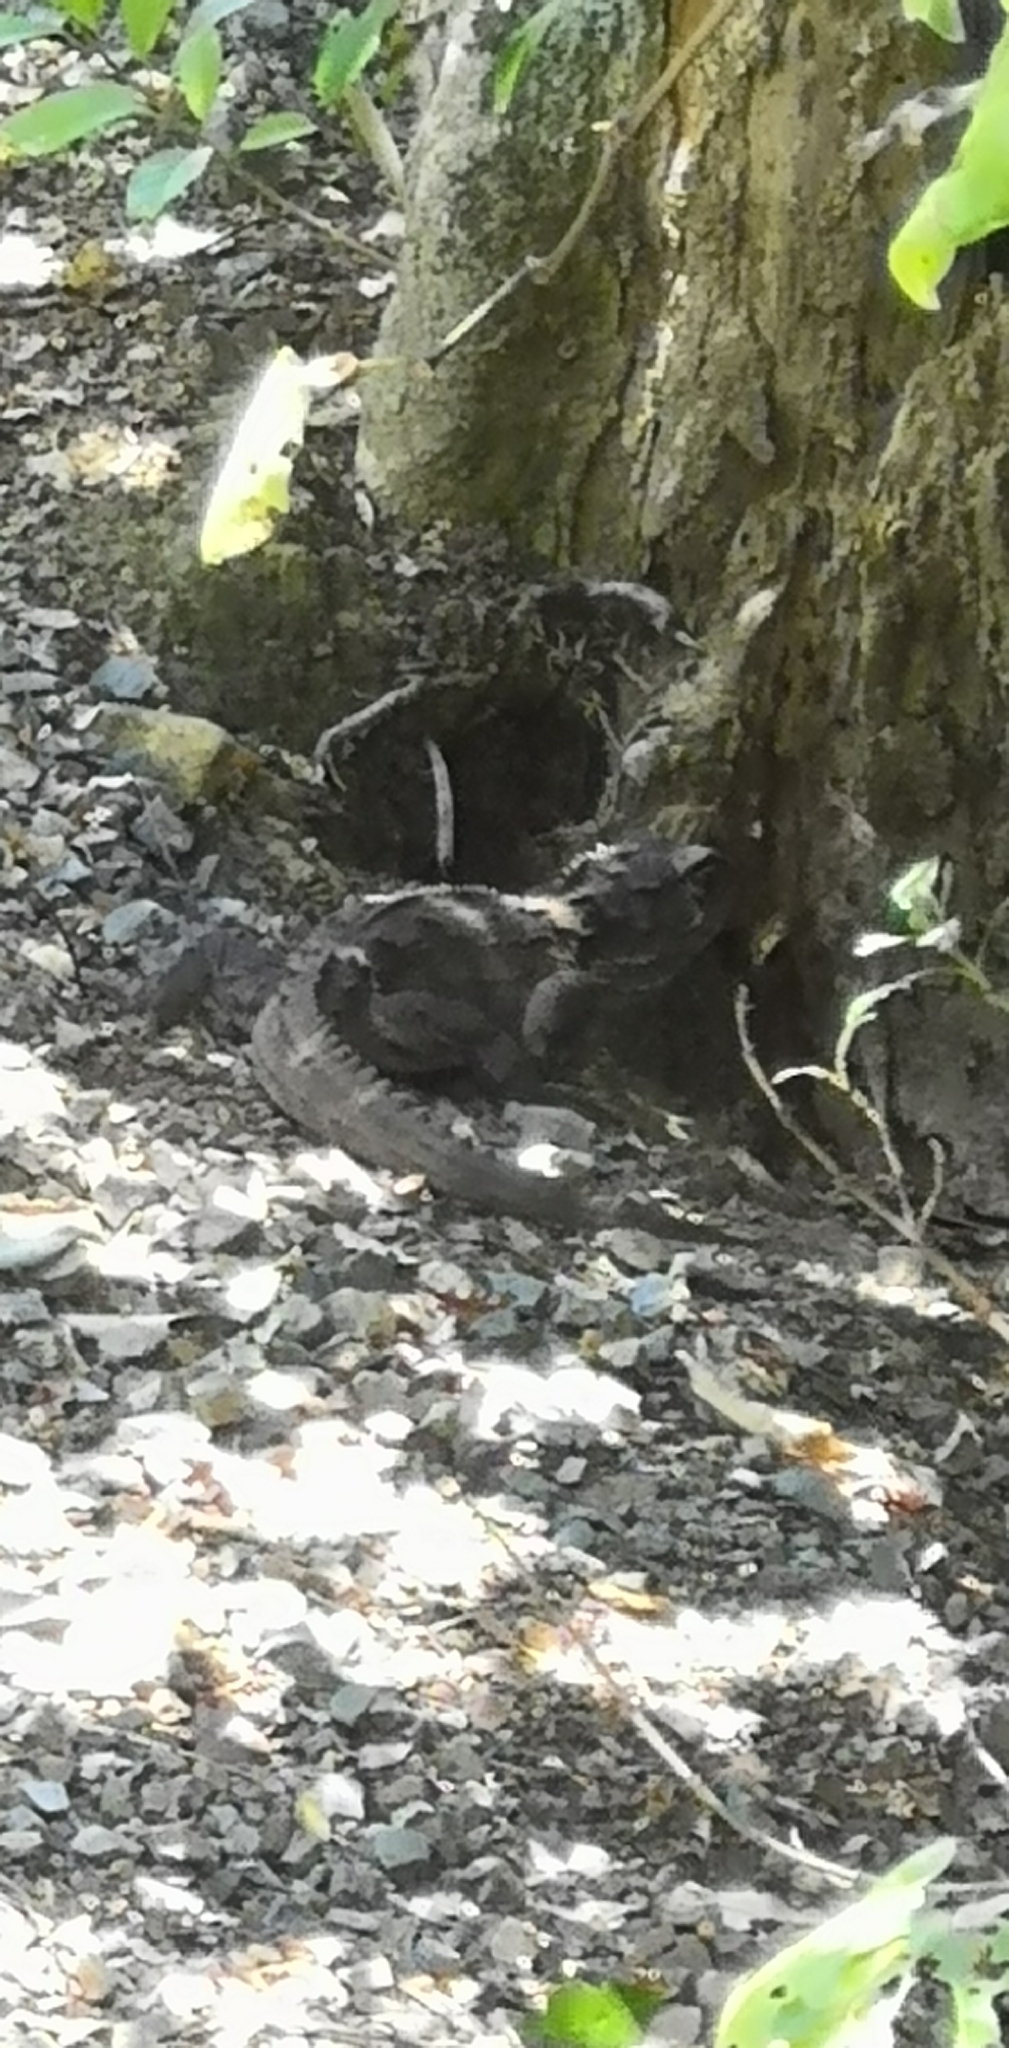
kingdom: Animalia
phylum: Chordata
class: Sphenodontia
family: Sphenodontidae
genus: Sphenodon
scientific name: Sphenodon punctatus
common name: Tuatara
